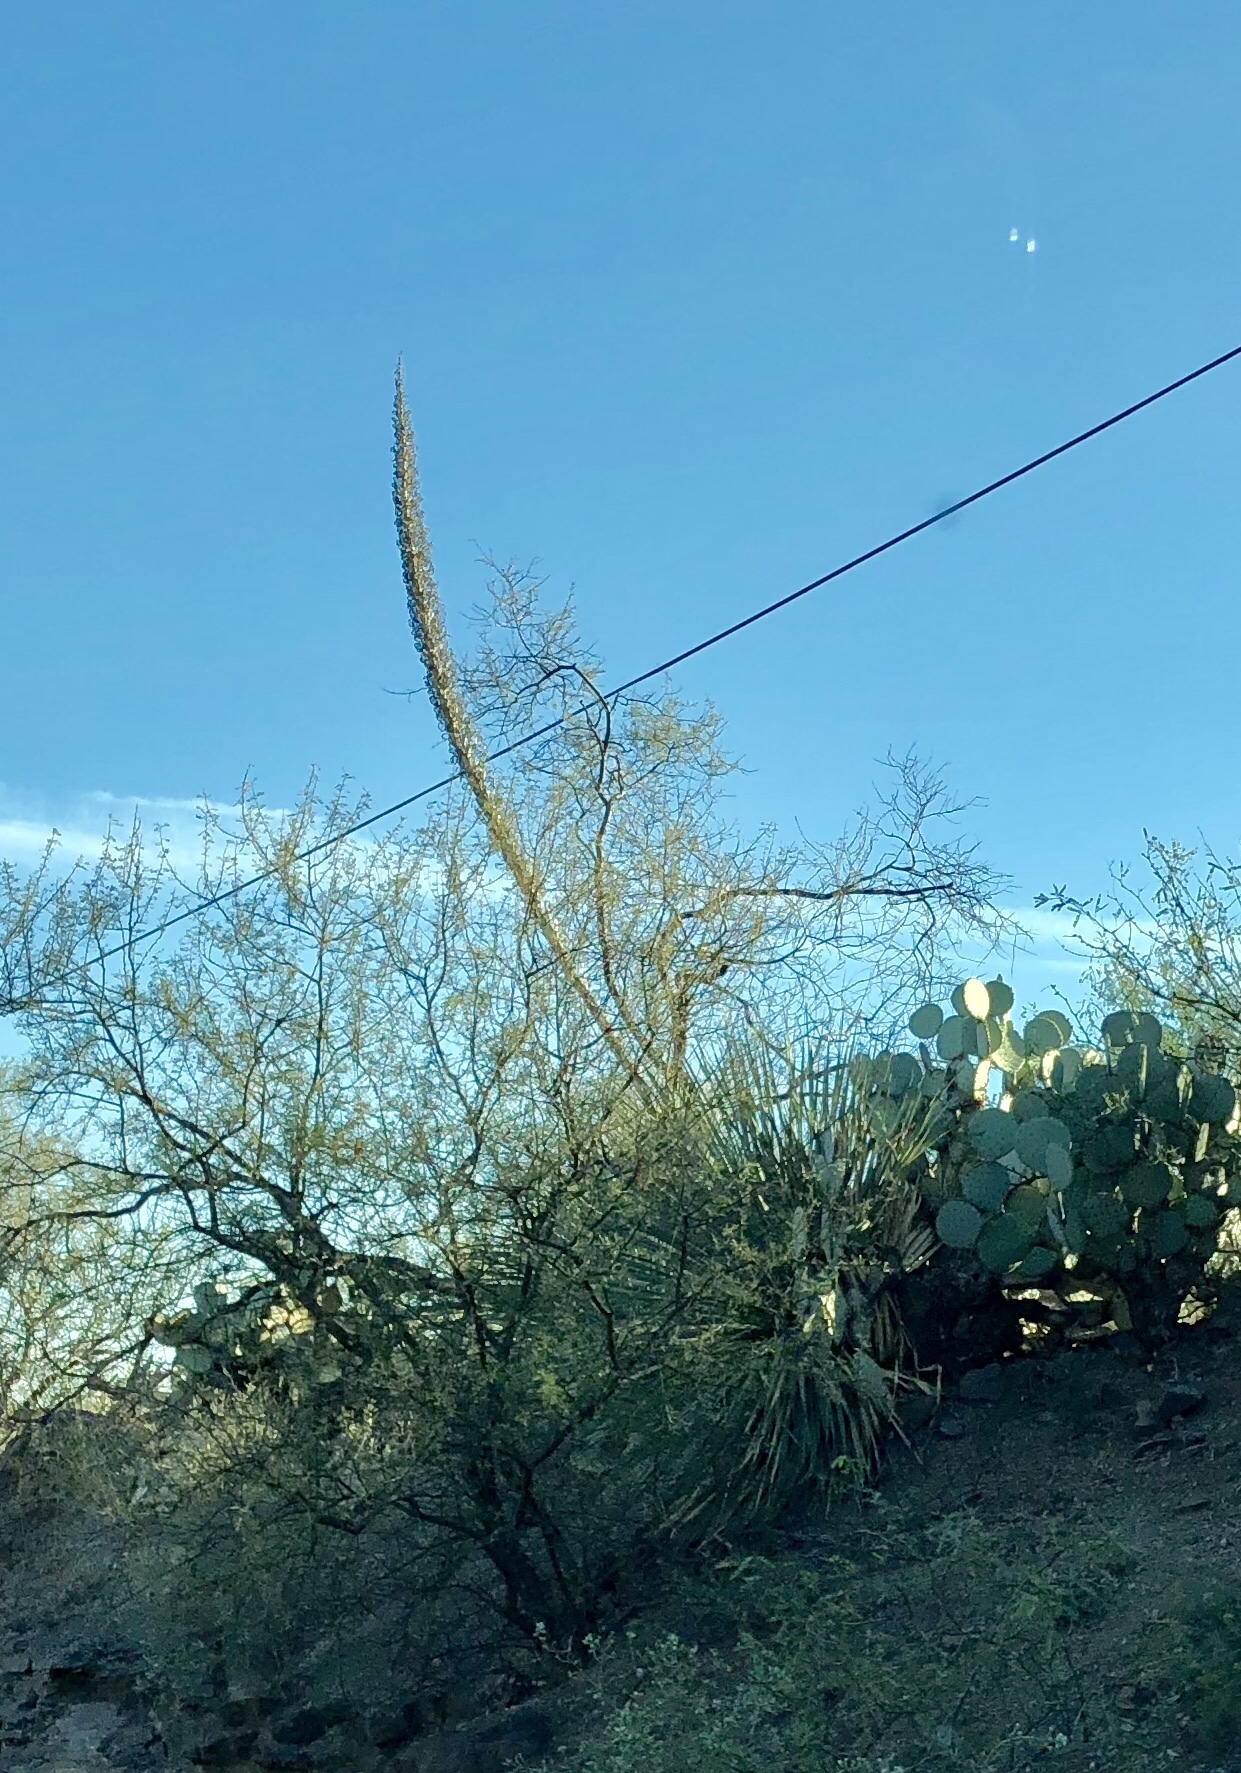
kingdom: Plantae
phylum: Tracheophyta
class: Liliopsida
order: Asparagales
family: Asparagaceae
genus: Dasylirion
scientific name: Dasylirion wheeleri
